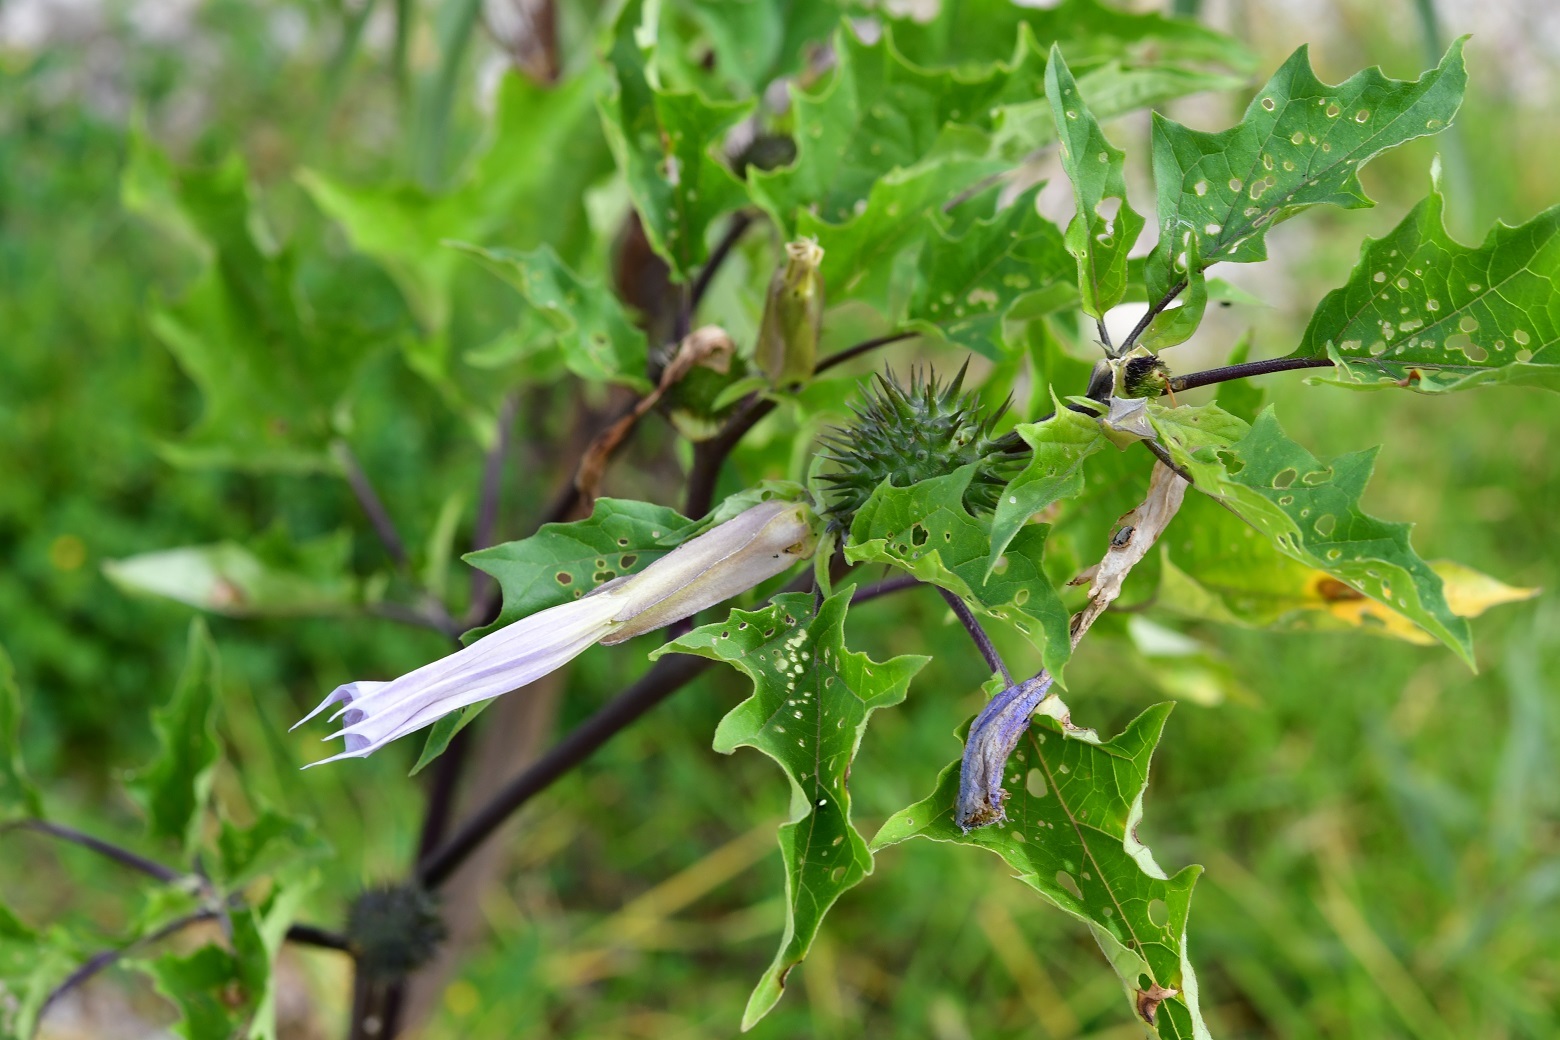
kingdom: Plantae
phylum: Tracheophyta
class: Magnoliopsida
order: Solanales
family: Solanaceae
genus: Datura
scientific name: Datura stramonium
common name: Thorn-apple
